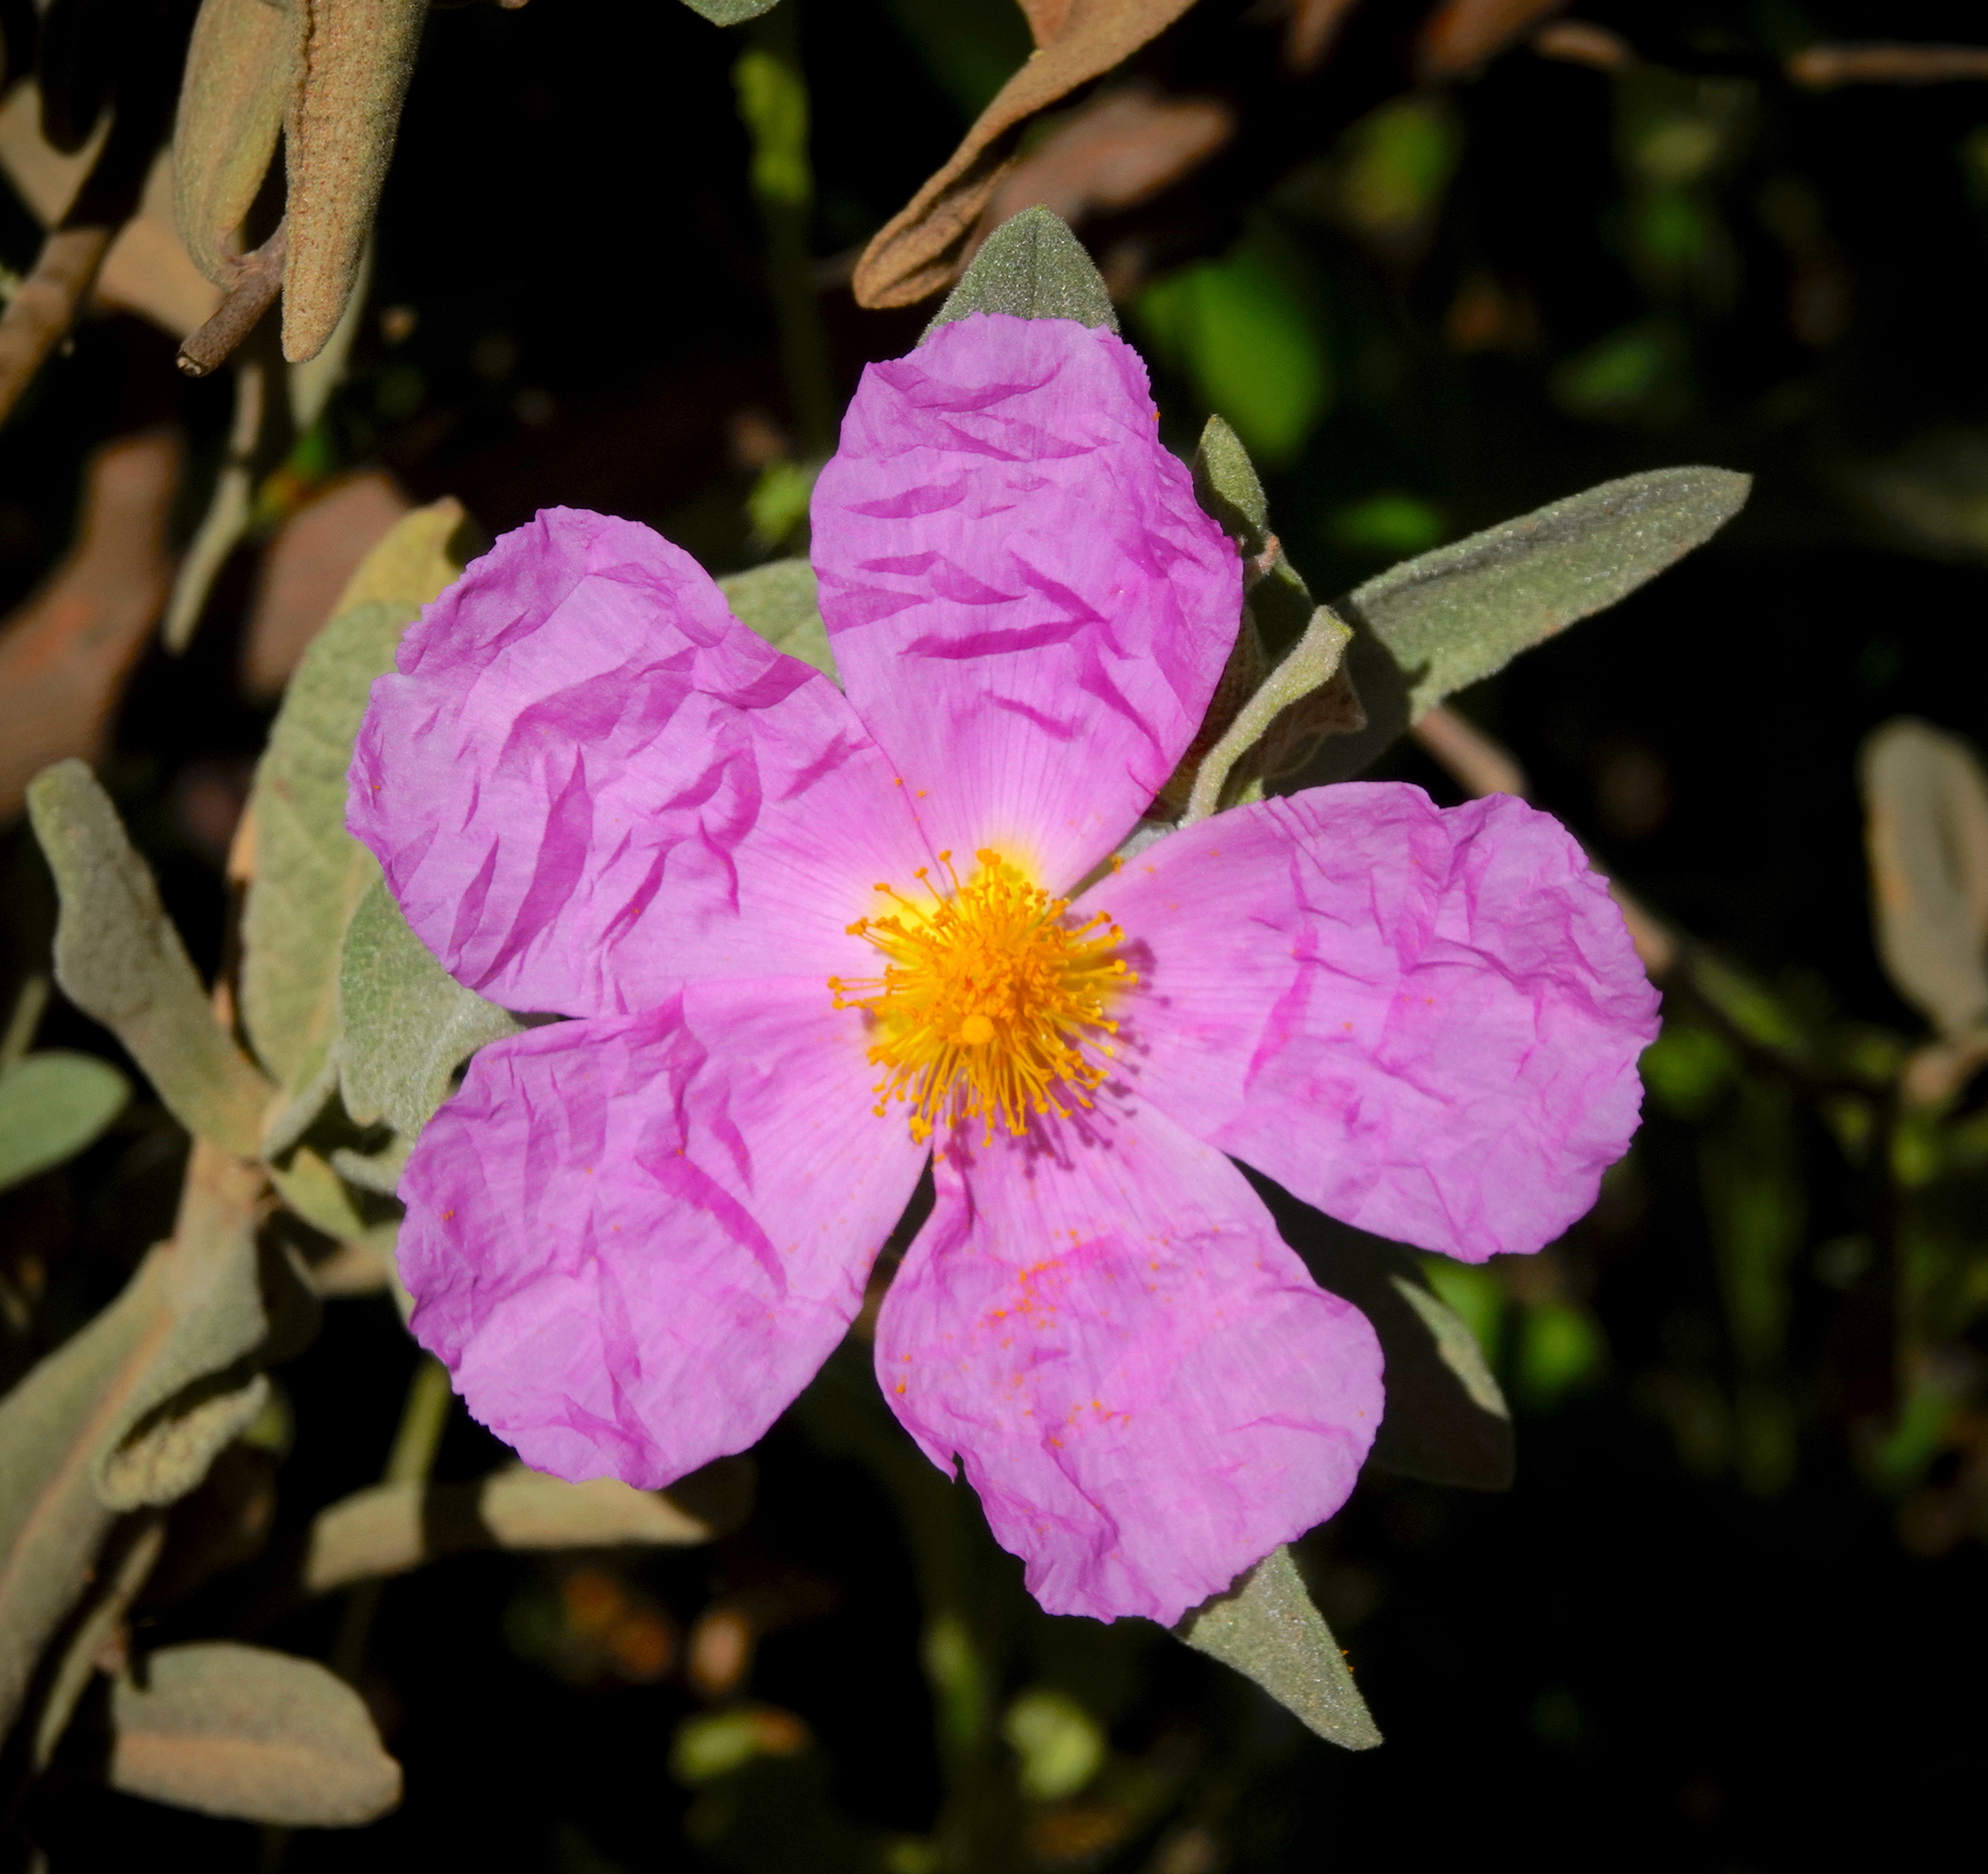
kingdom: Plantae
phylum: Tracheophyta
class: Magnoliopsida
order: Malvales
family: Cistaceae
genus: Cistus
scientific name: Cistus albidus
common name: White-leaf rock-rose
